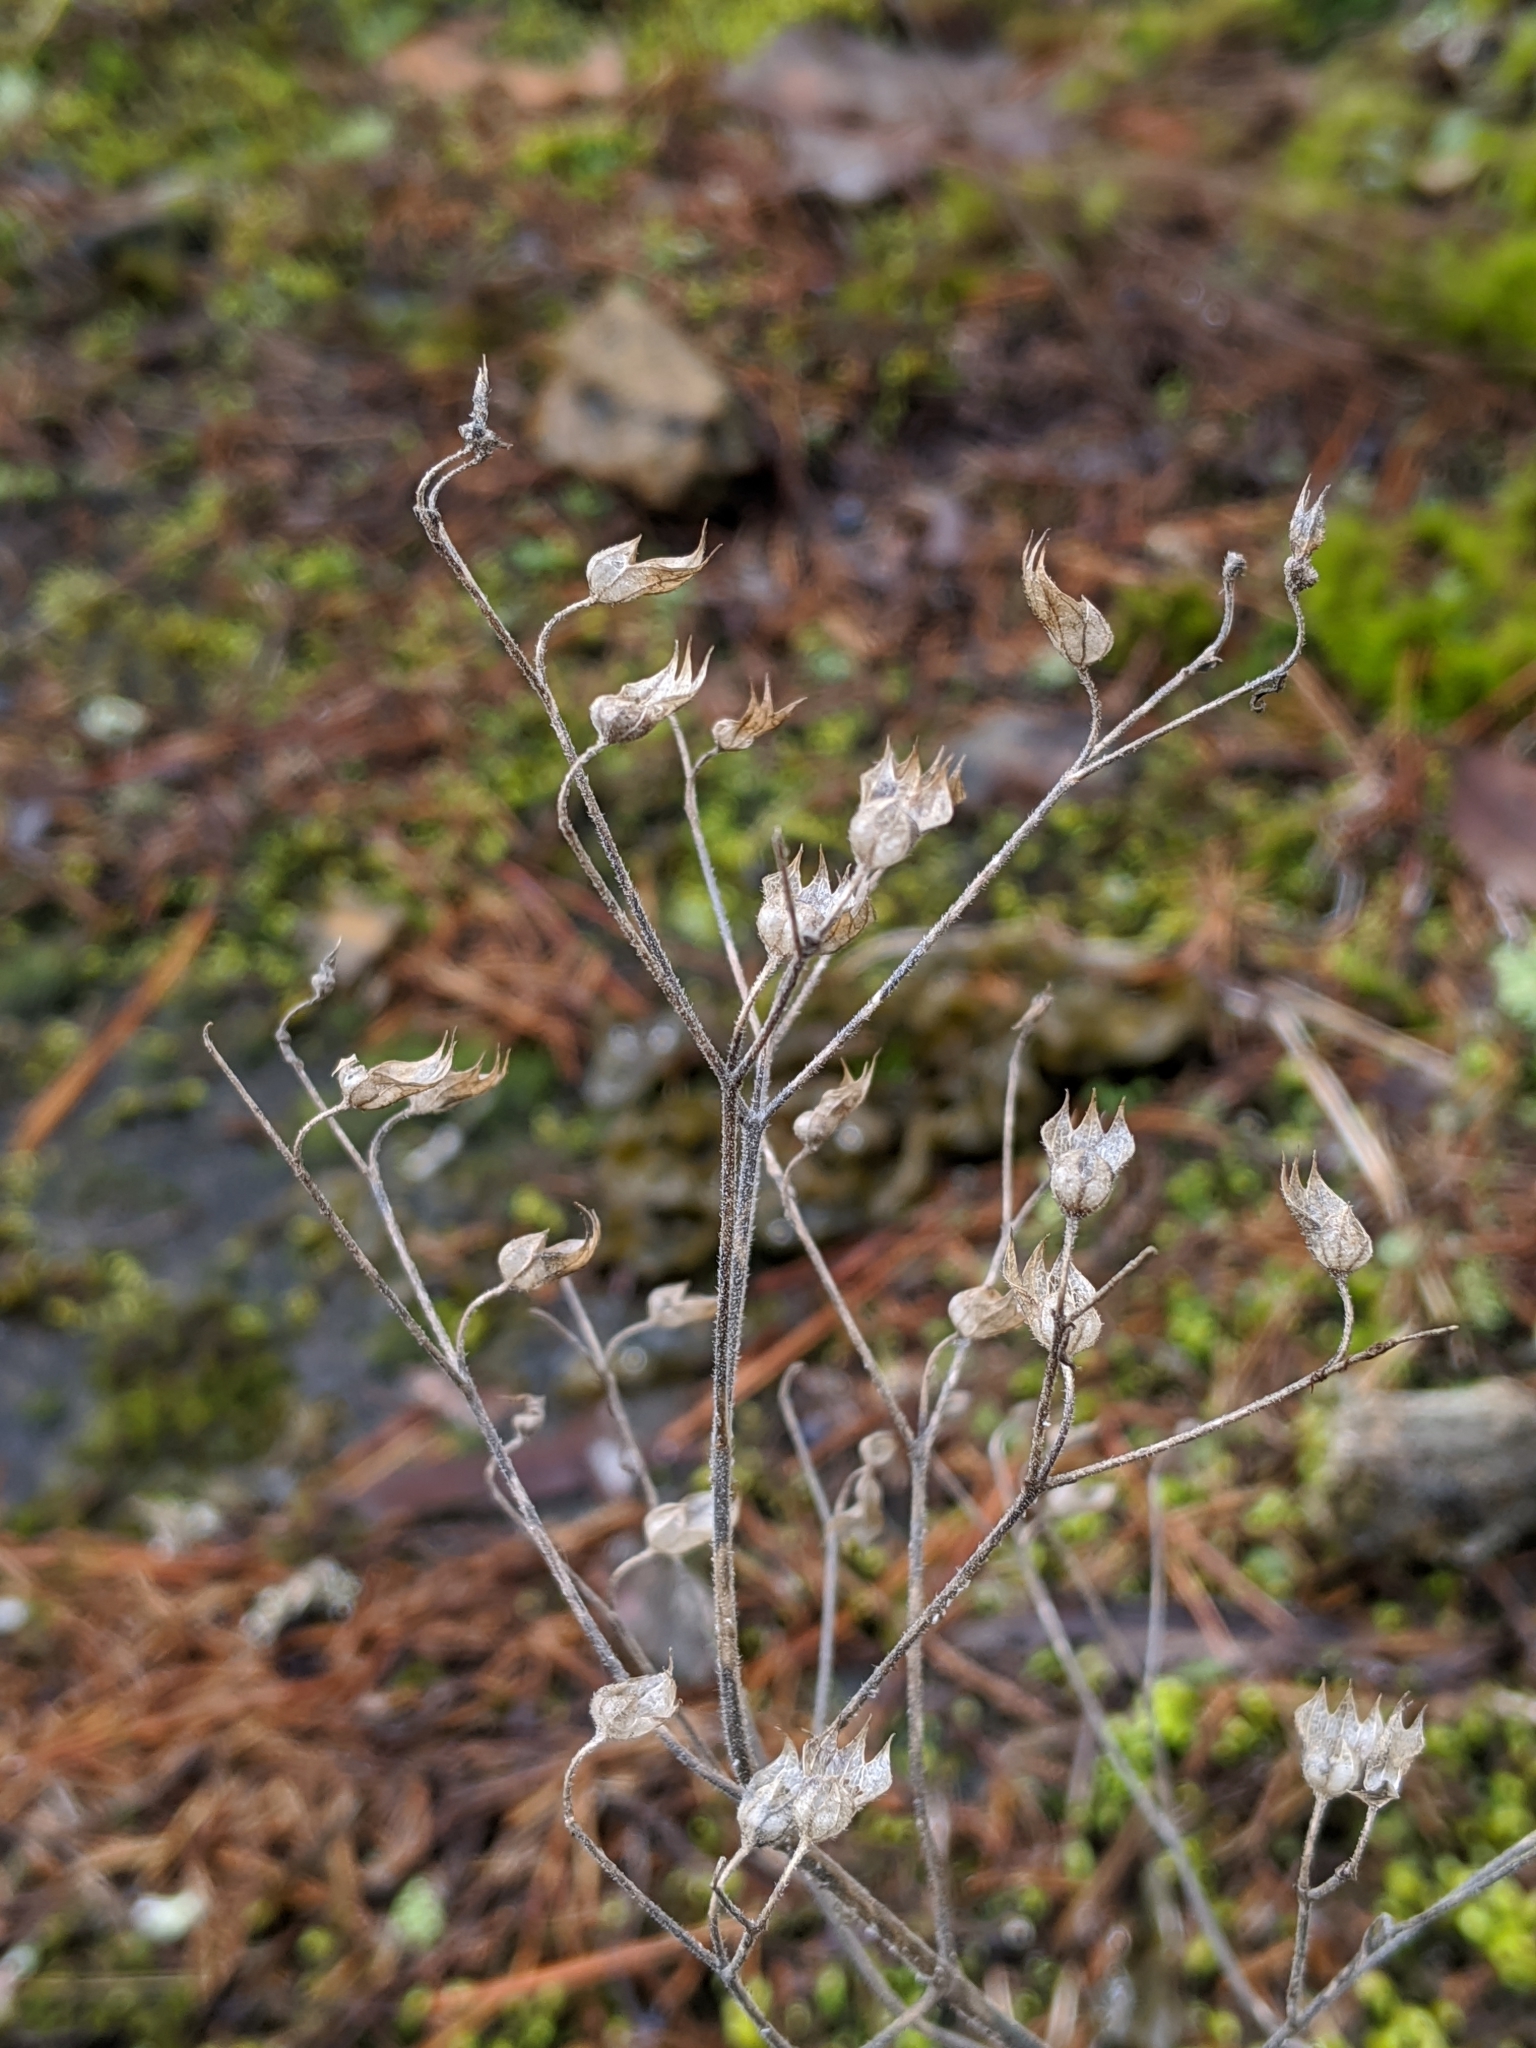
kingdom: Plantae
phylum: Tracheophyta
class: Magnoliopsida
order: Lamiales
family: Lamiaceae
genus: Trichostema
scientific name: Trichostema dichotomum
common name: Bastard pennyroyal
